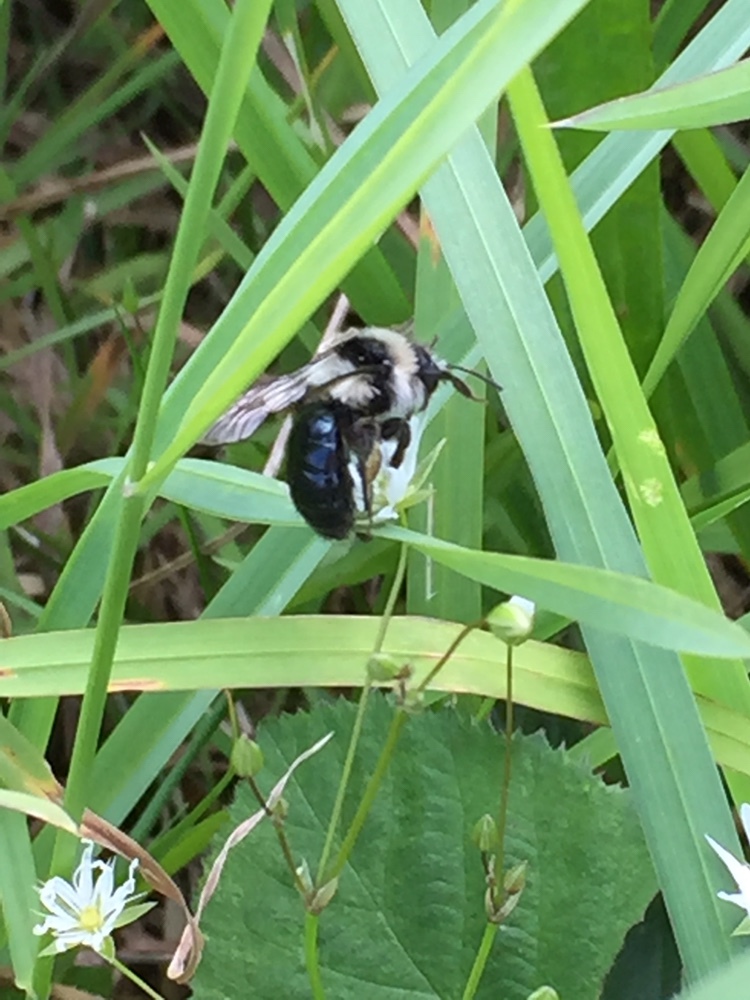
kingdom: Animalia
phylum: Arthropoda
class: Insecta
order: Hymenoptera
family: Andrenidae
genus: Andrena
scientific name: Andrena cineraria
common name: Ashy mining bee
